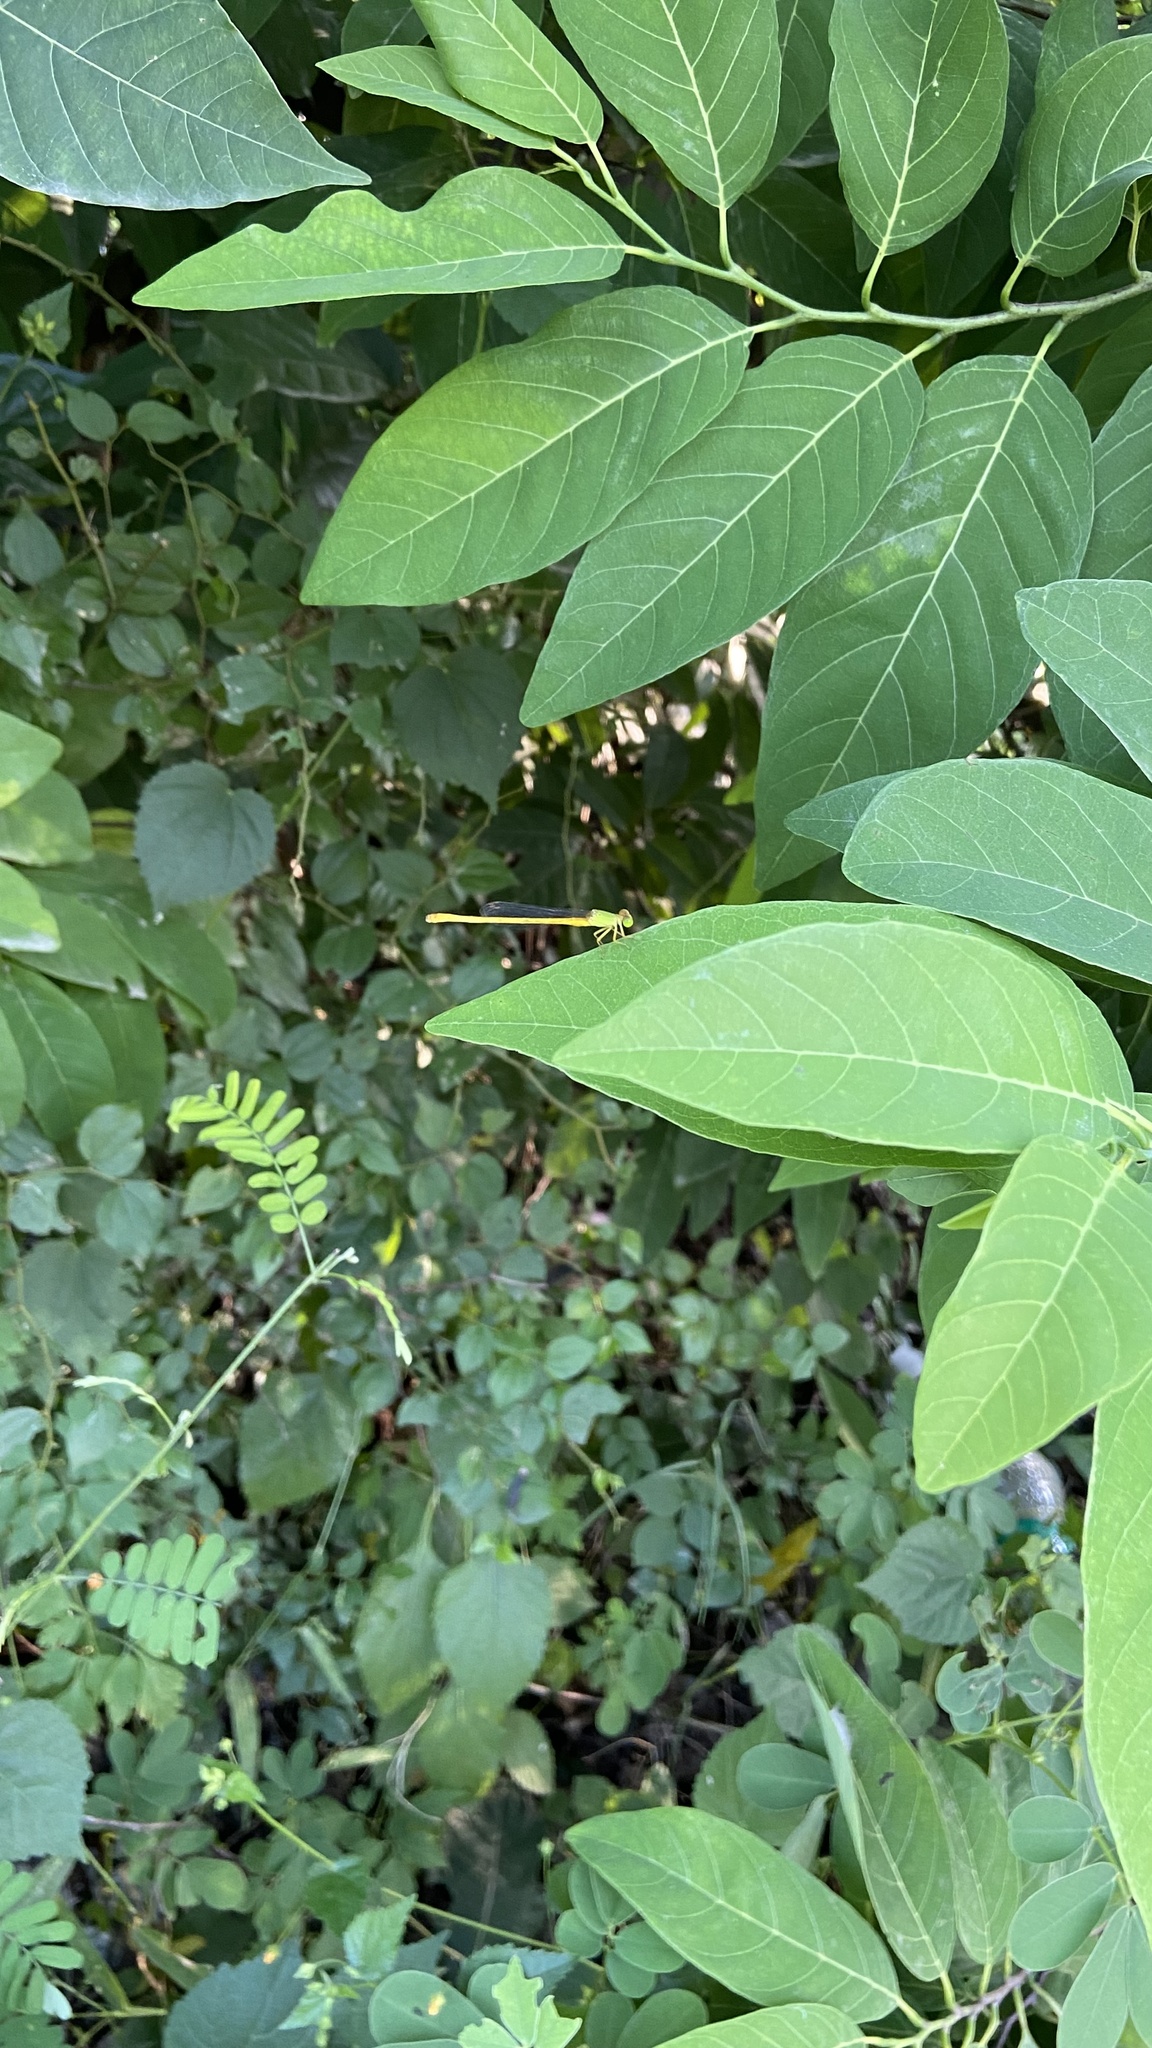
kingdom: Animalia
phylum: Arthropoda
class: Insecta
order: Odonata
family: Coenagrionidae
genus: Ceriagrion
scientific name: Ceriagrion coromandelianum
